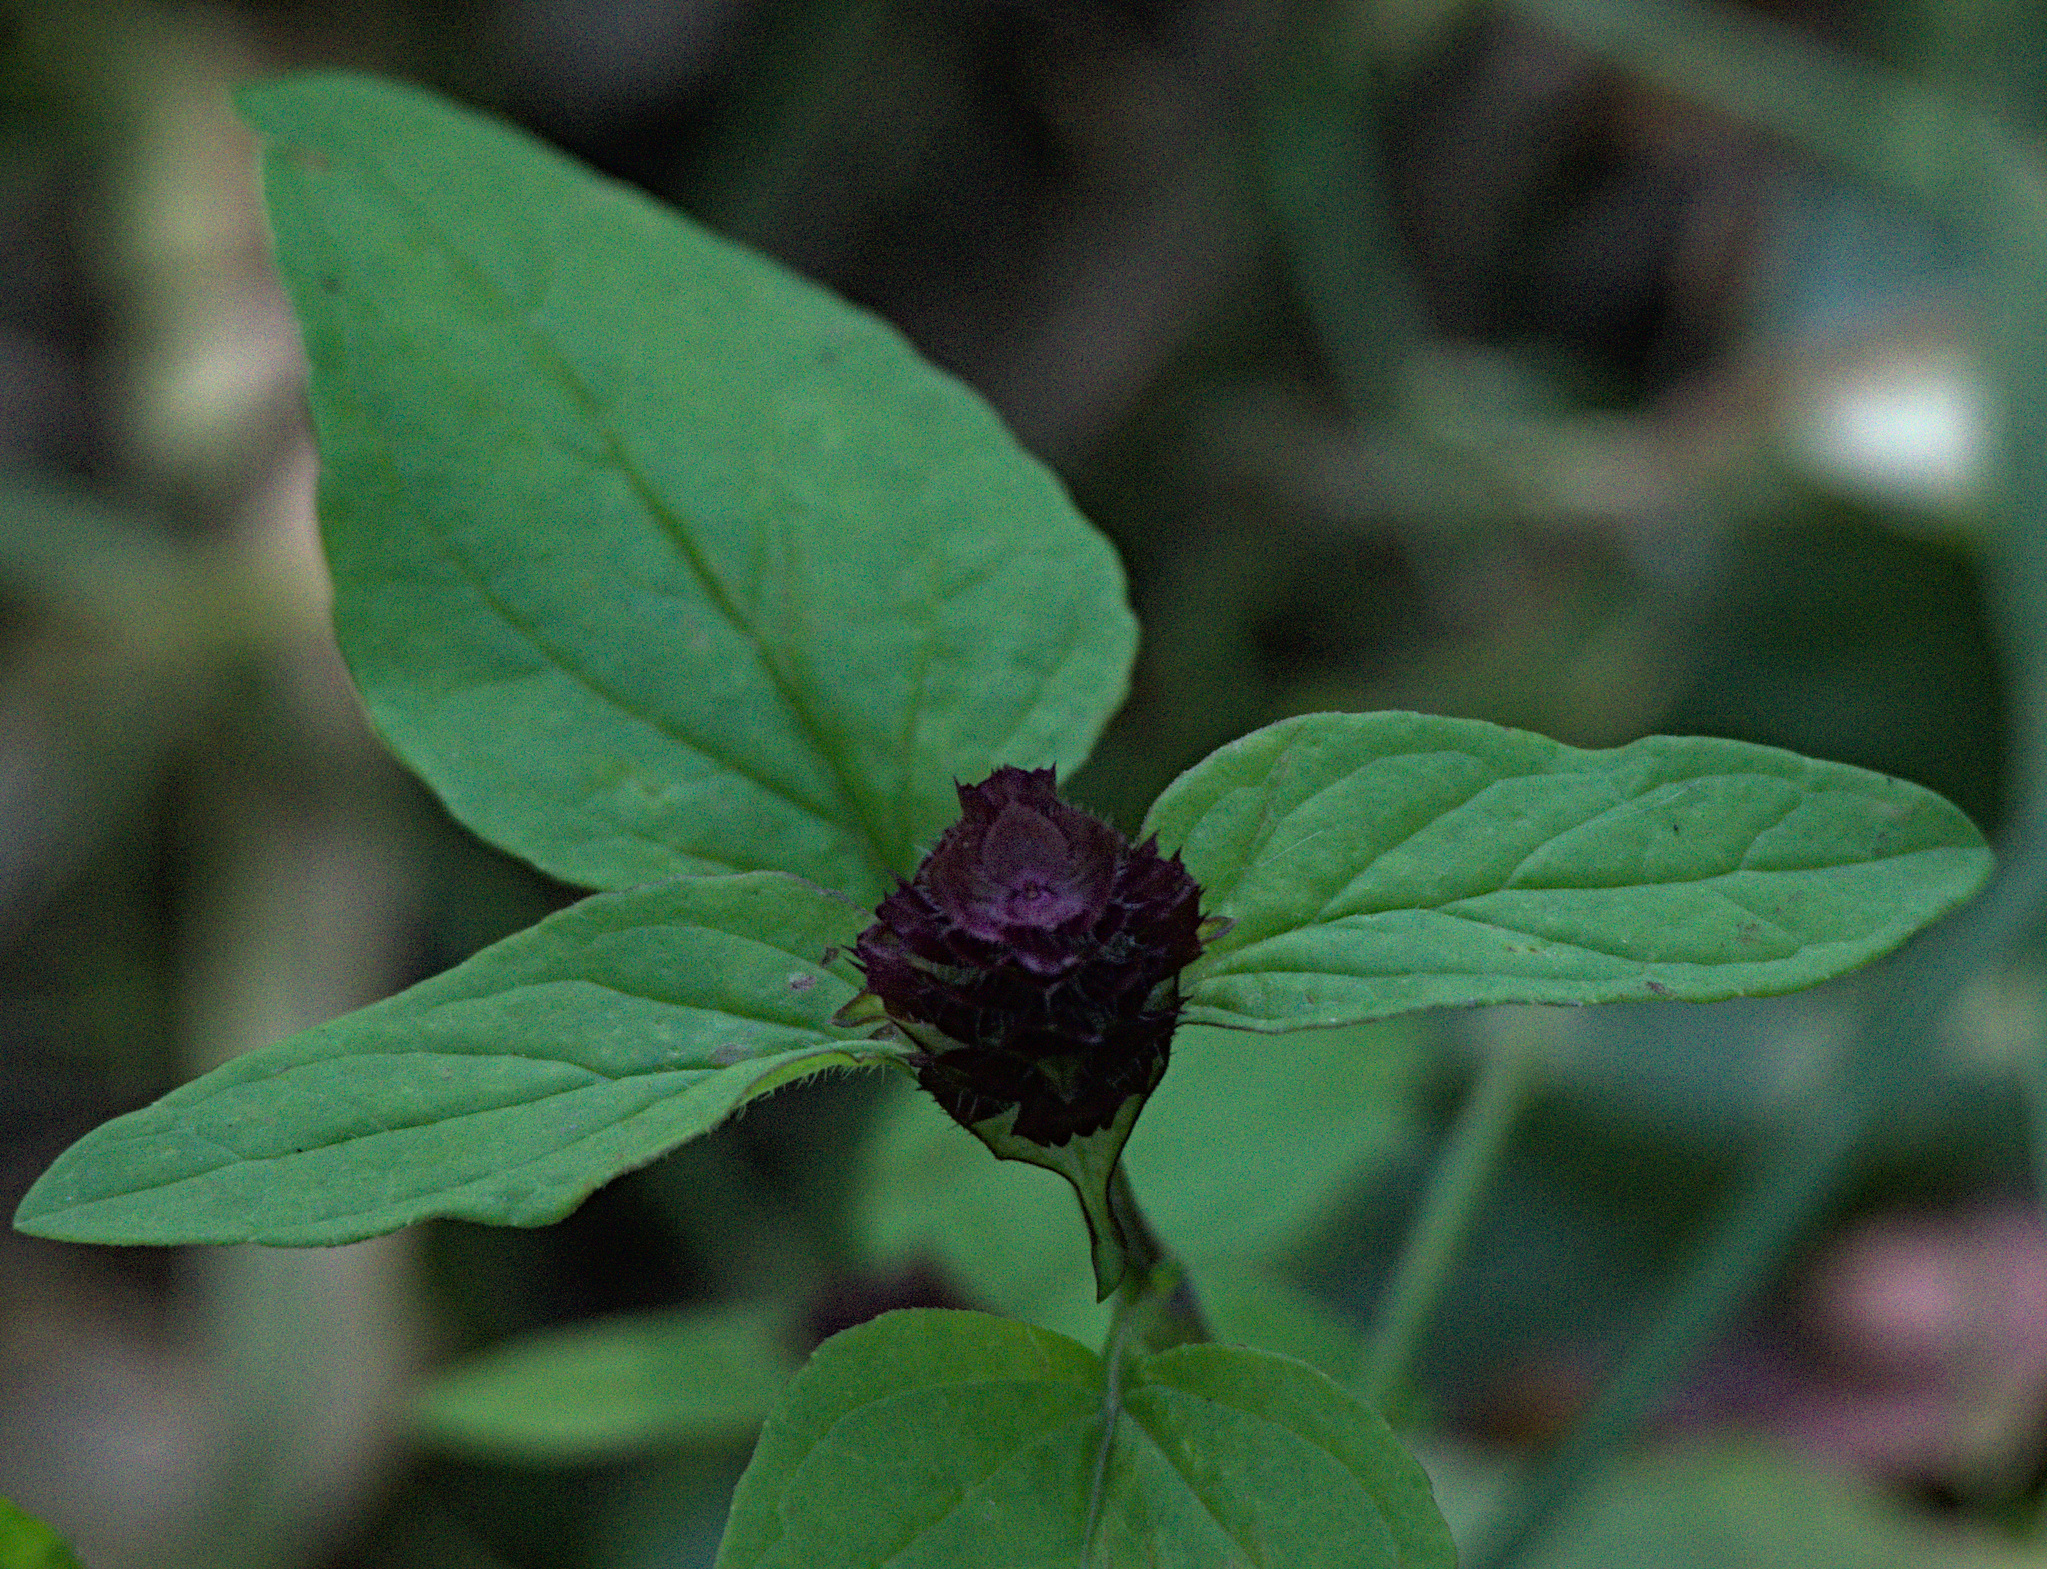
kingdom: Plantae
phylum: Tracheophyta
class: Magnoliopsida
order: Lamiales
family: Lamiaceae
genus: Prunella
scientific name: Prunella vulgaris
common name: Heal-all
